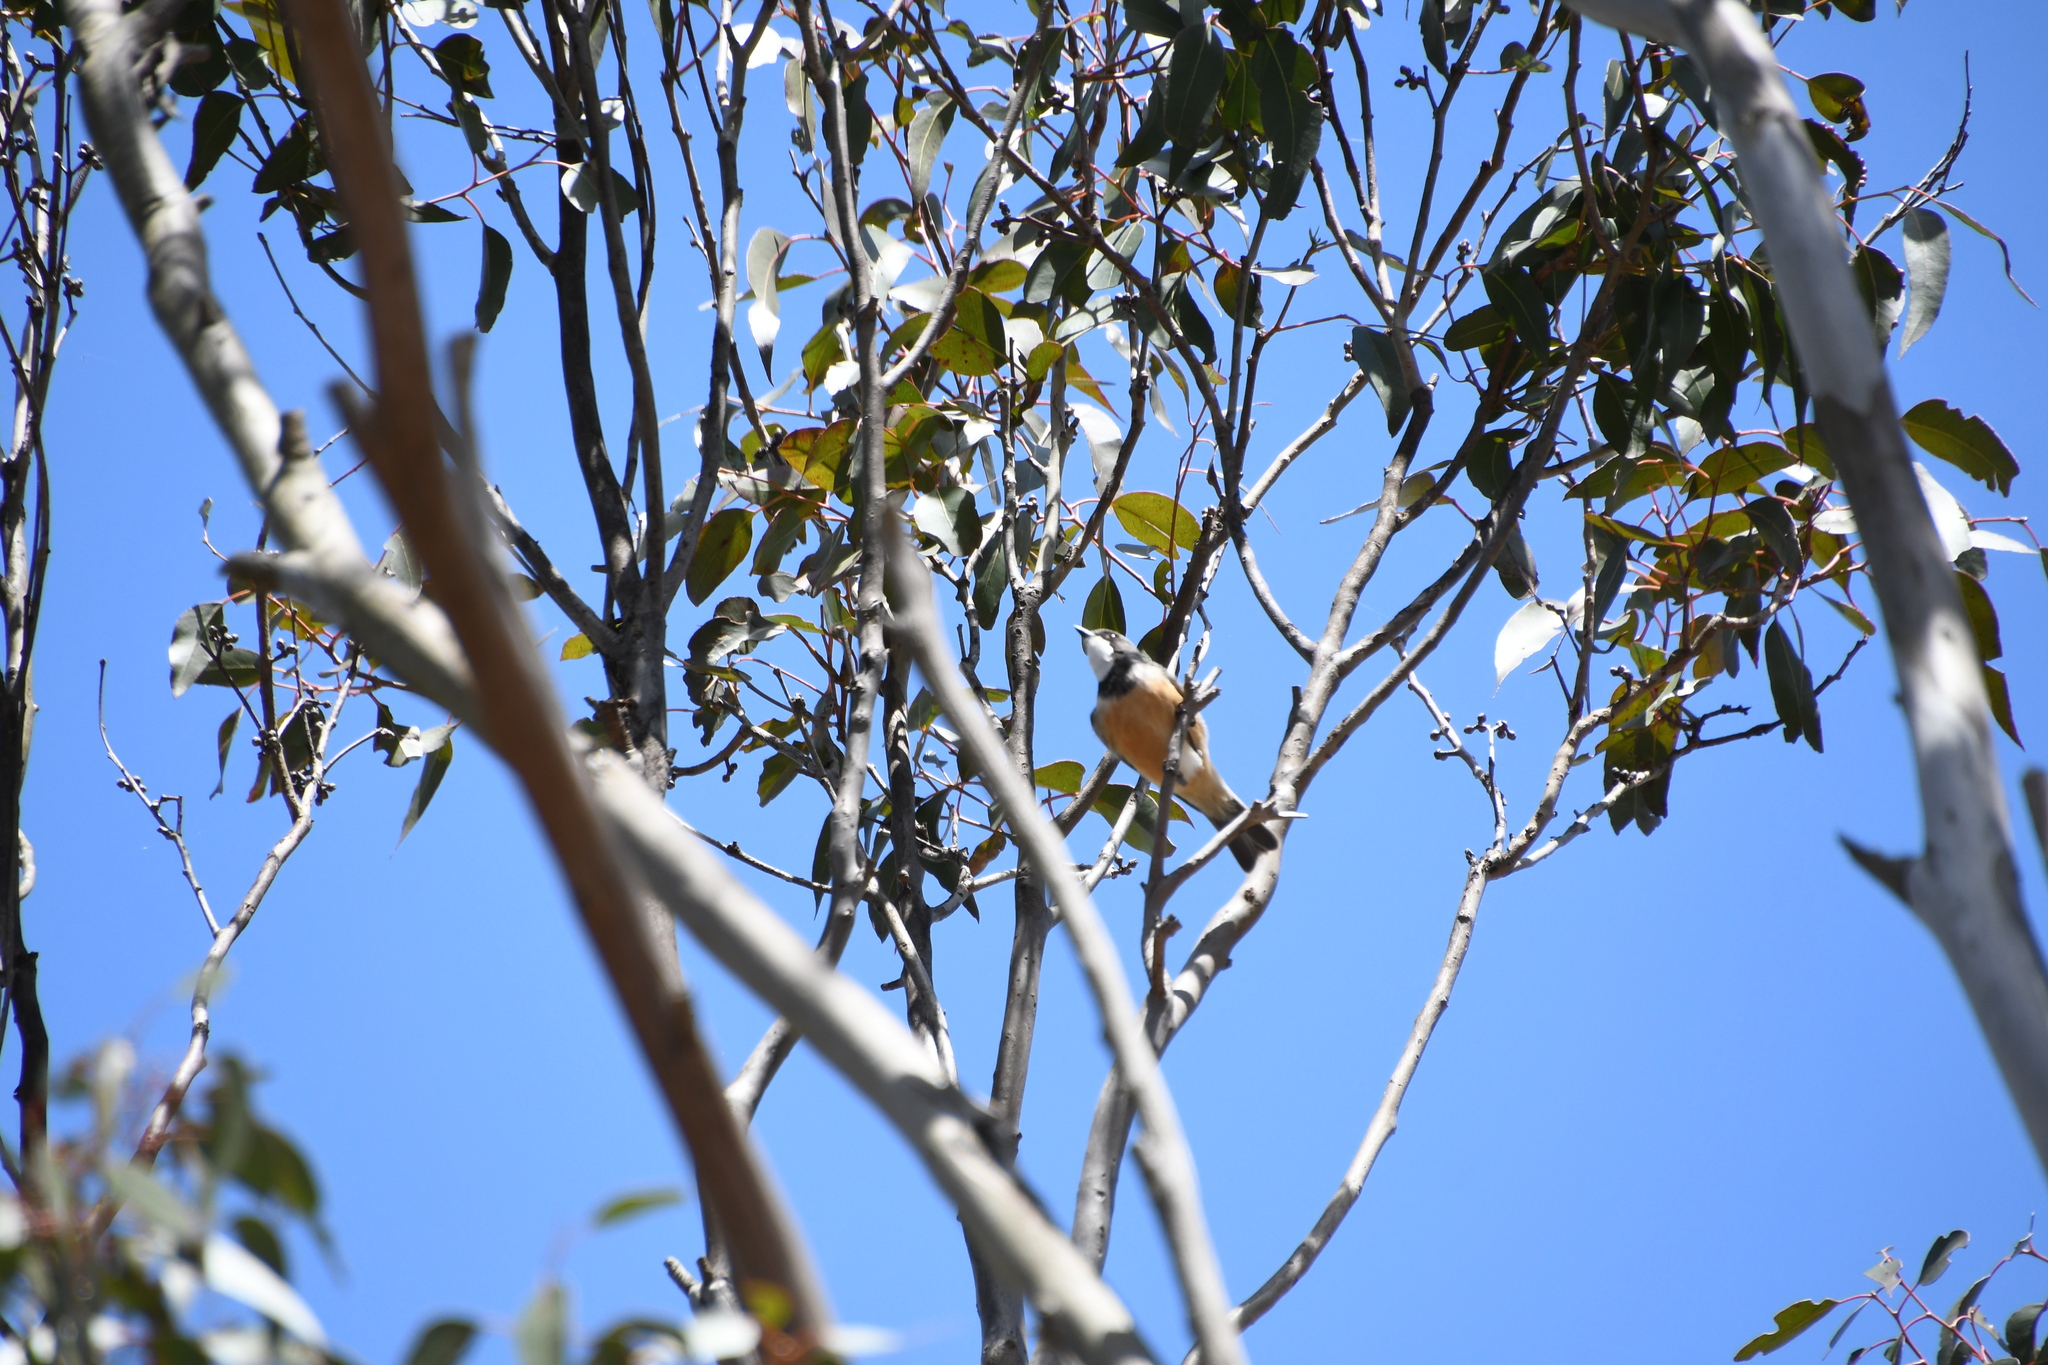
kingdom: Animalia
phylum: Chordata
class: Aves
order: Passeriformes
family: Pachycephalidae
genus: Pachycephala
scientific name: Pachycephala rufiventris
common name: Rufous whistler
